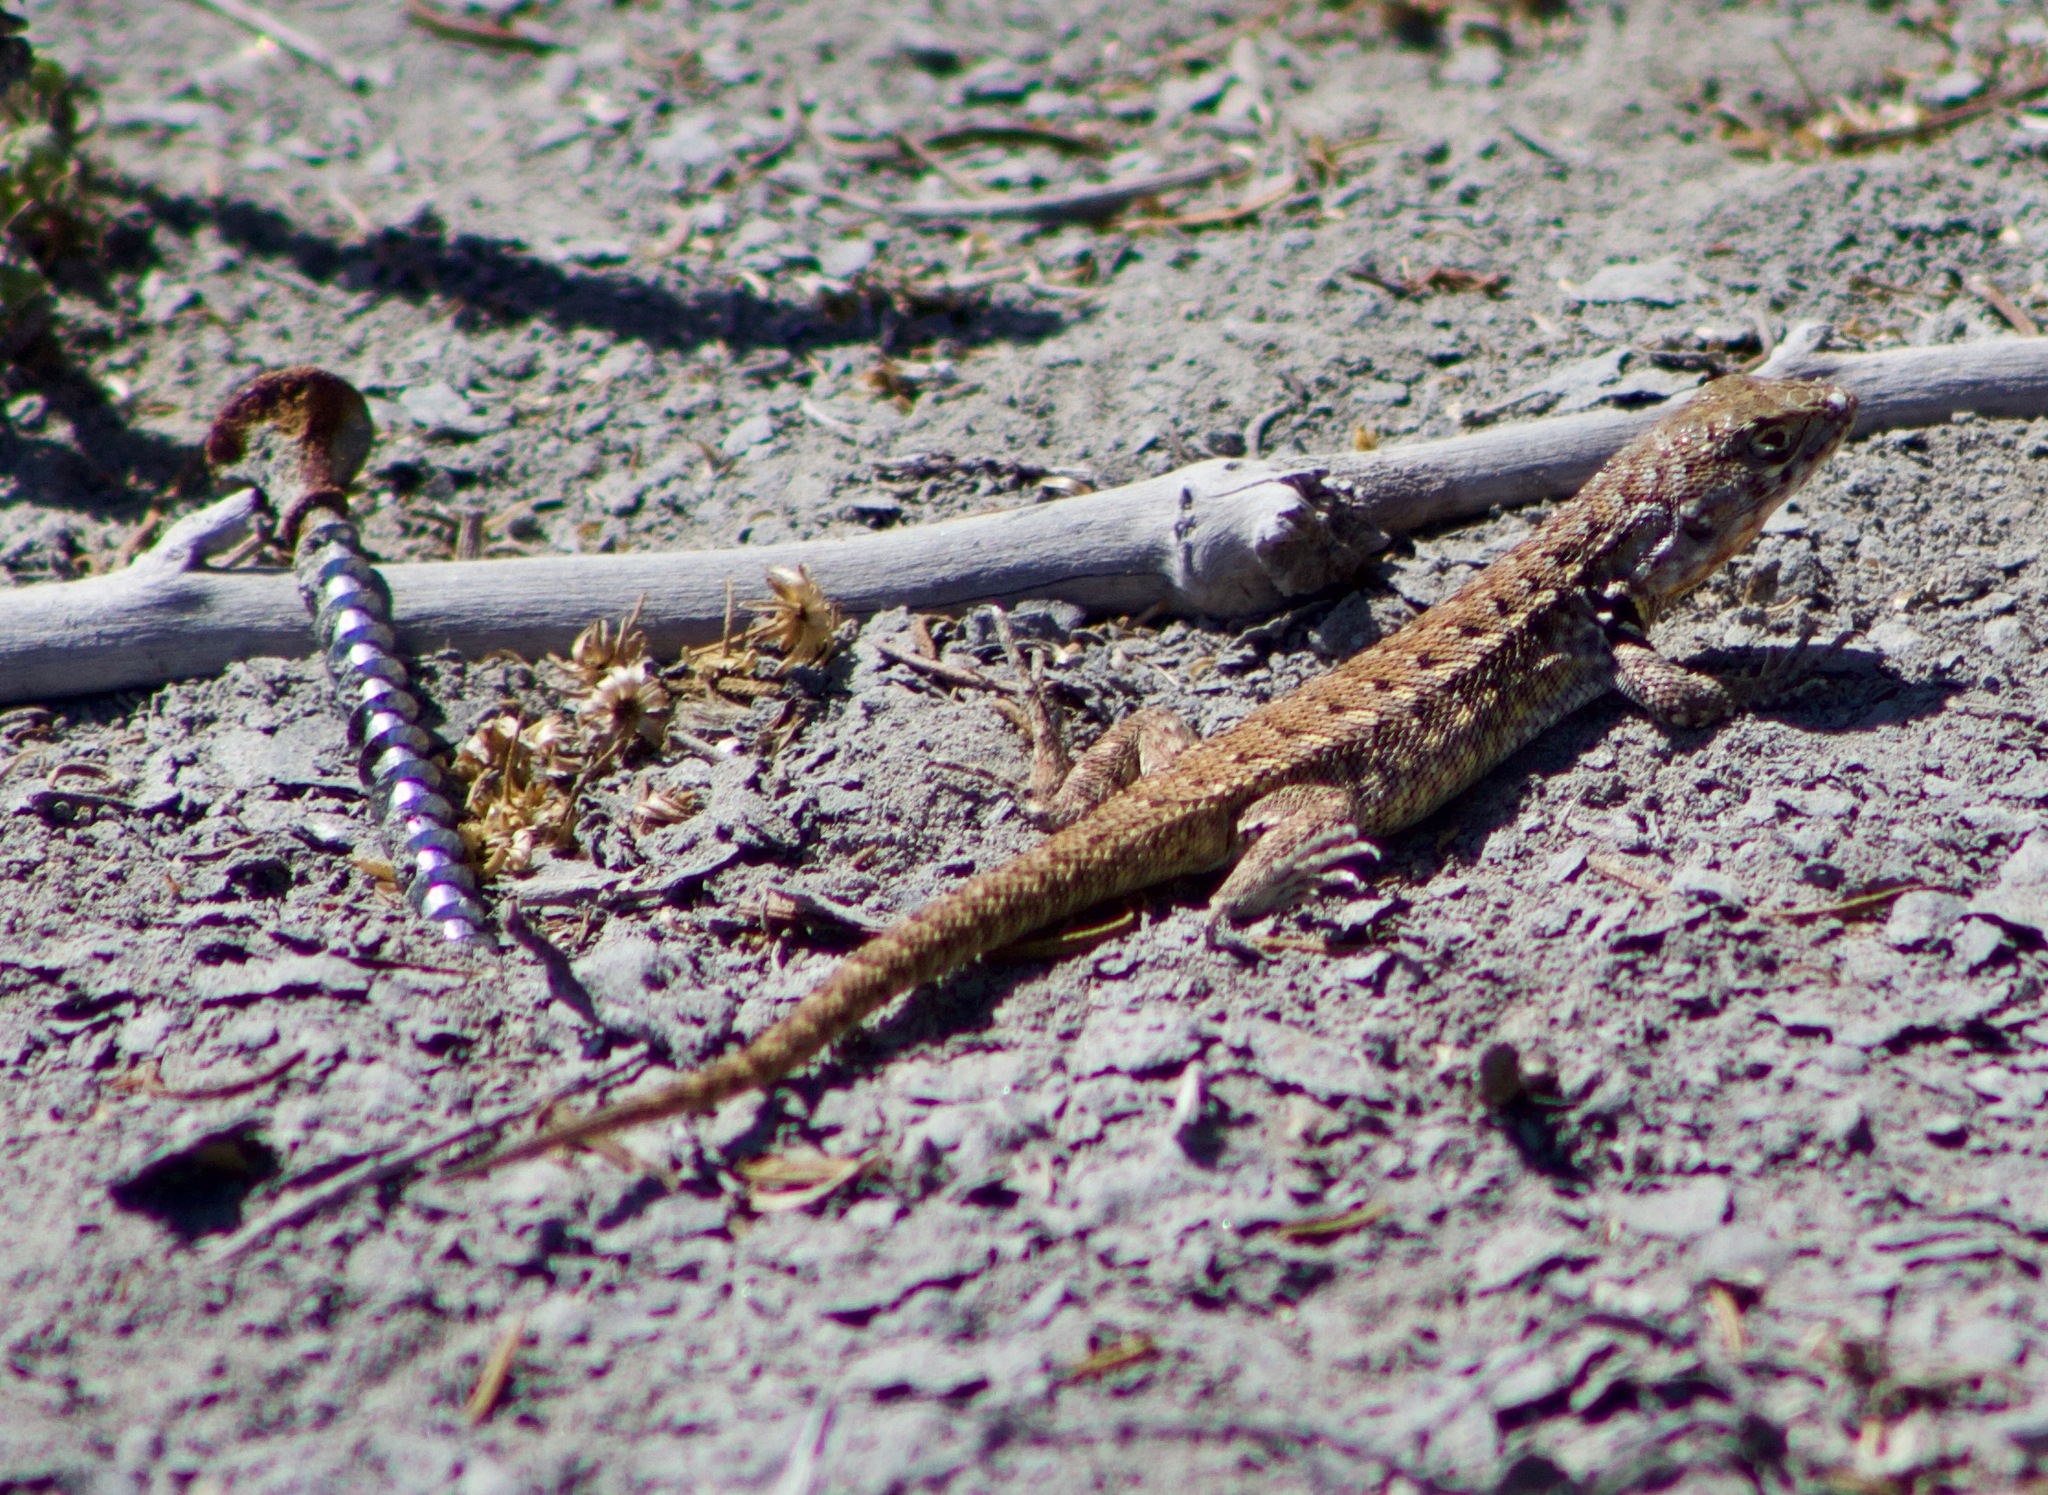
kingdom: Animalia
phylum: Chordata
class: Squamata
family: Liolaemidae
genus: Liolaemus
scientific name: Liolaemus zapallarensis
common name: Zapallaren tree iguana
